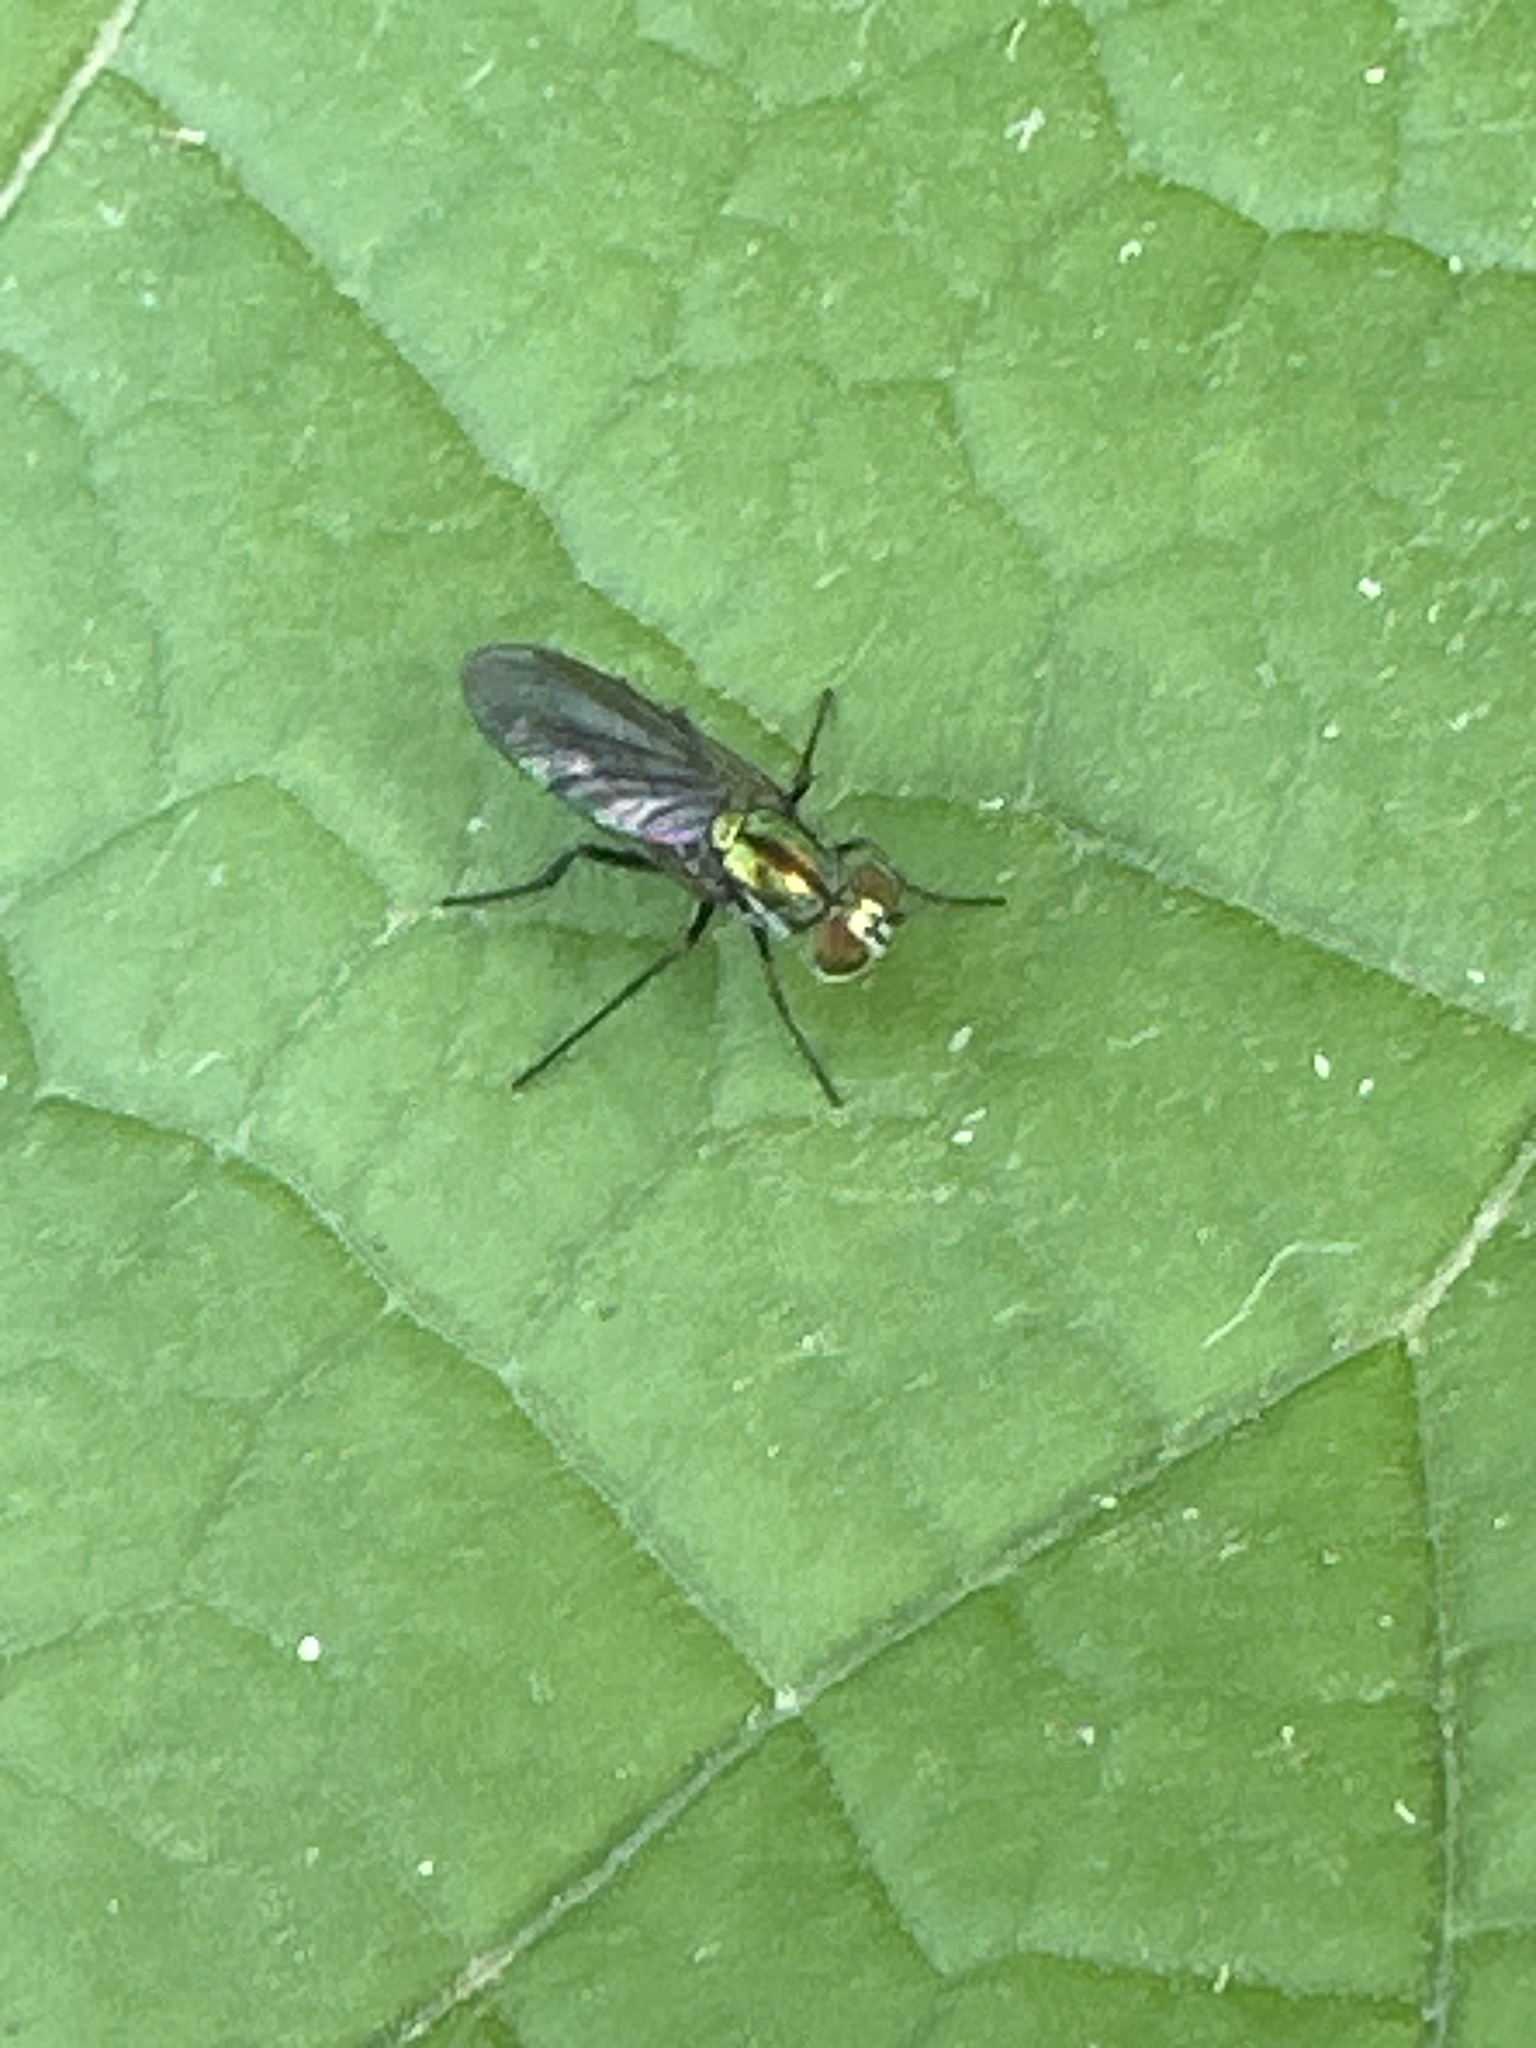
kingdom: Animalia
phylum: Arthropoda
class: Insecta
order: Diptera
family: Dolichopodidae
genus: Plagioneurus
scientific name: Plagioneurus univittatus
